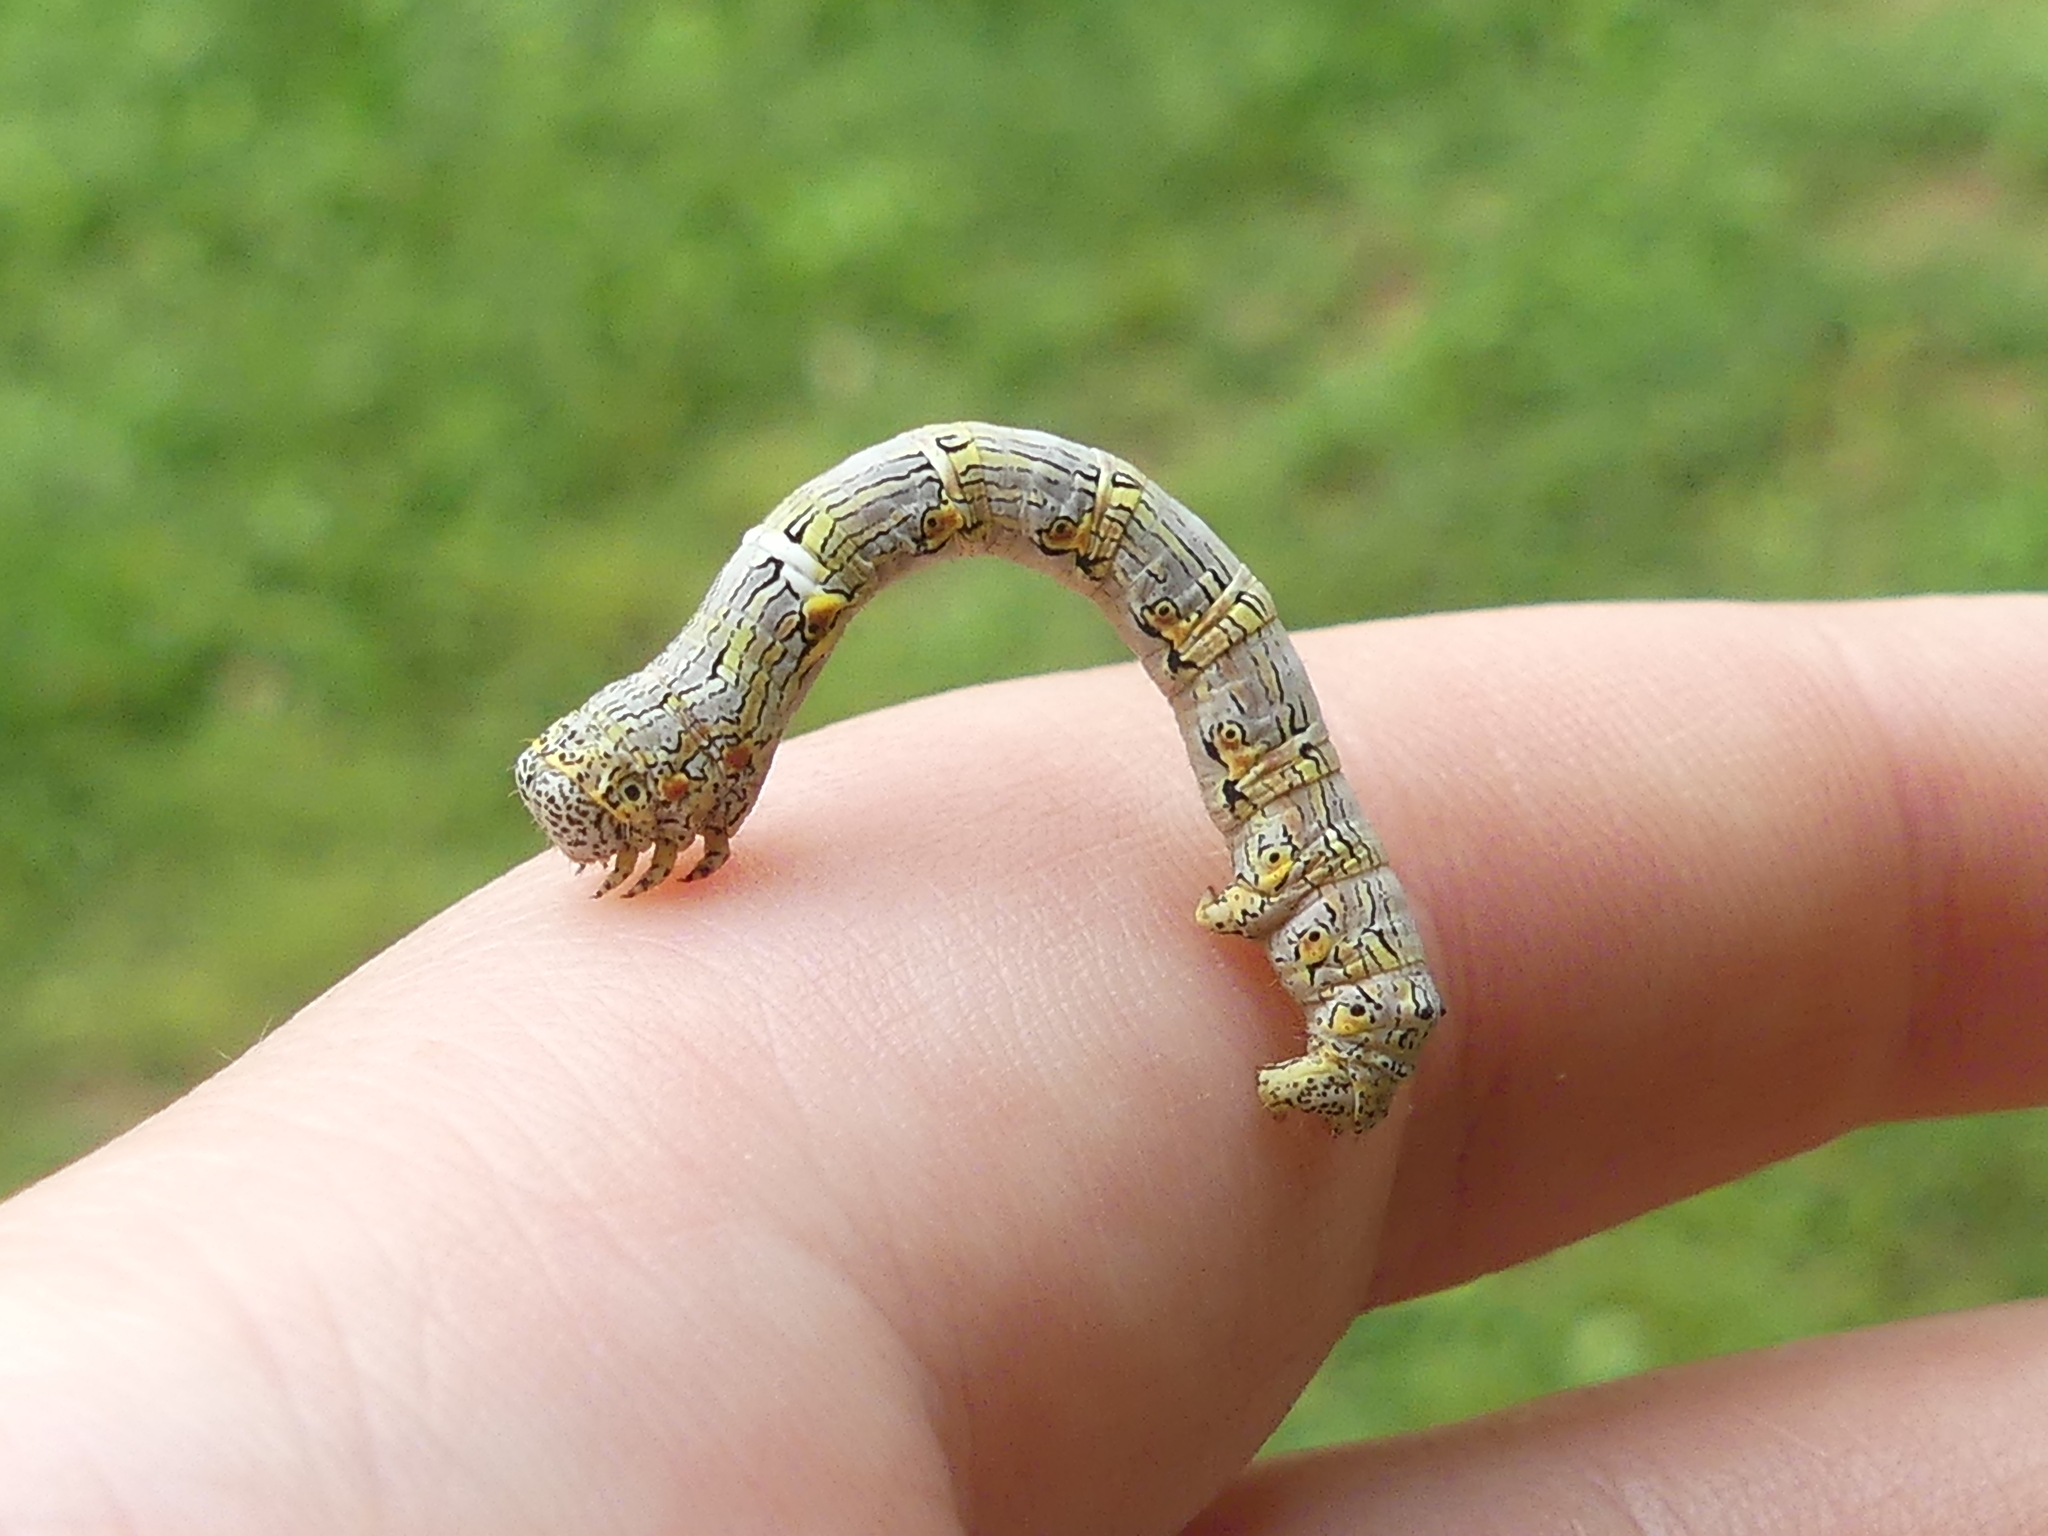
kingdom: Animalia
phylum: Arthropoda
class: Insecta
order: Lepidoptera
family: Geometridae
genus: Lycia
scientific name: Lycia ypsilon
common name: Wooly gray
